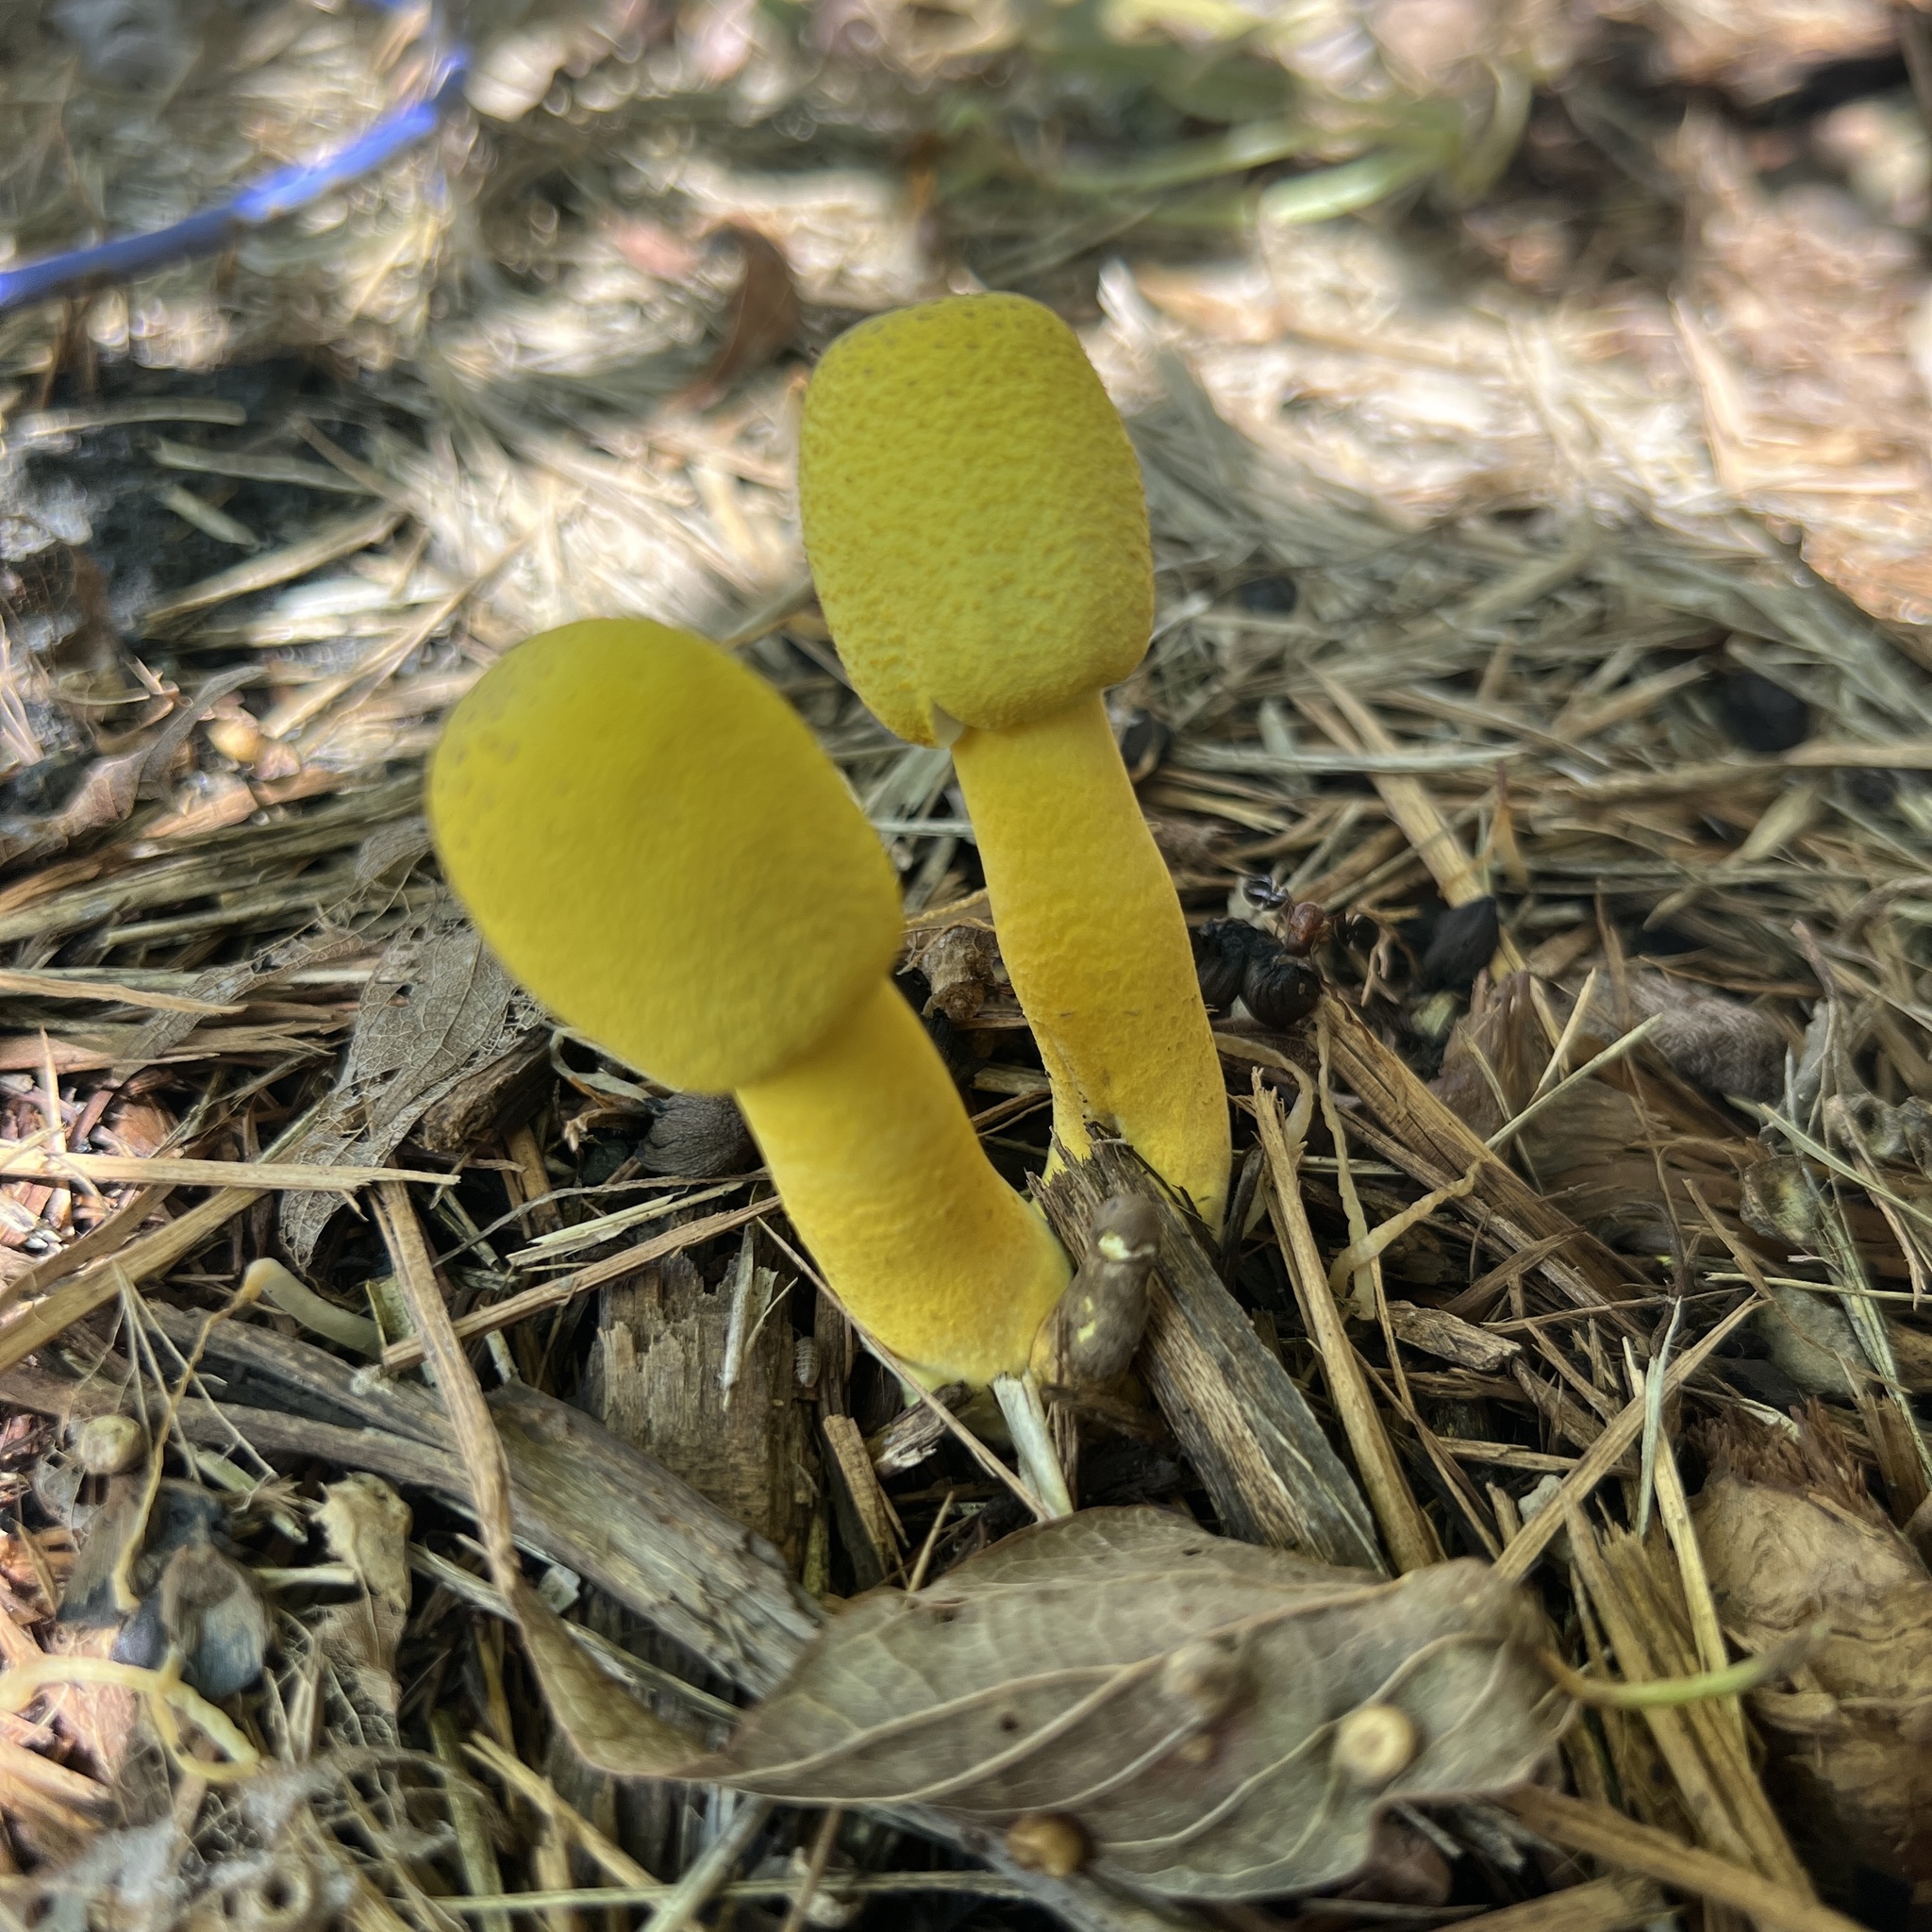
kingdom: Fungi
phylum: Basidiomycota
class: Agaricomycetes
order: Agaricales
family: Agaricaceae
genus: Leucocoprinus
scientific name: Leucocoprinus birnbaumii
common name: Plantpot dapperling
